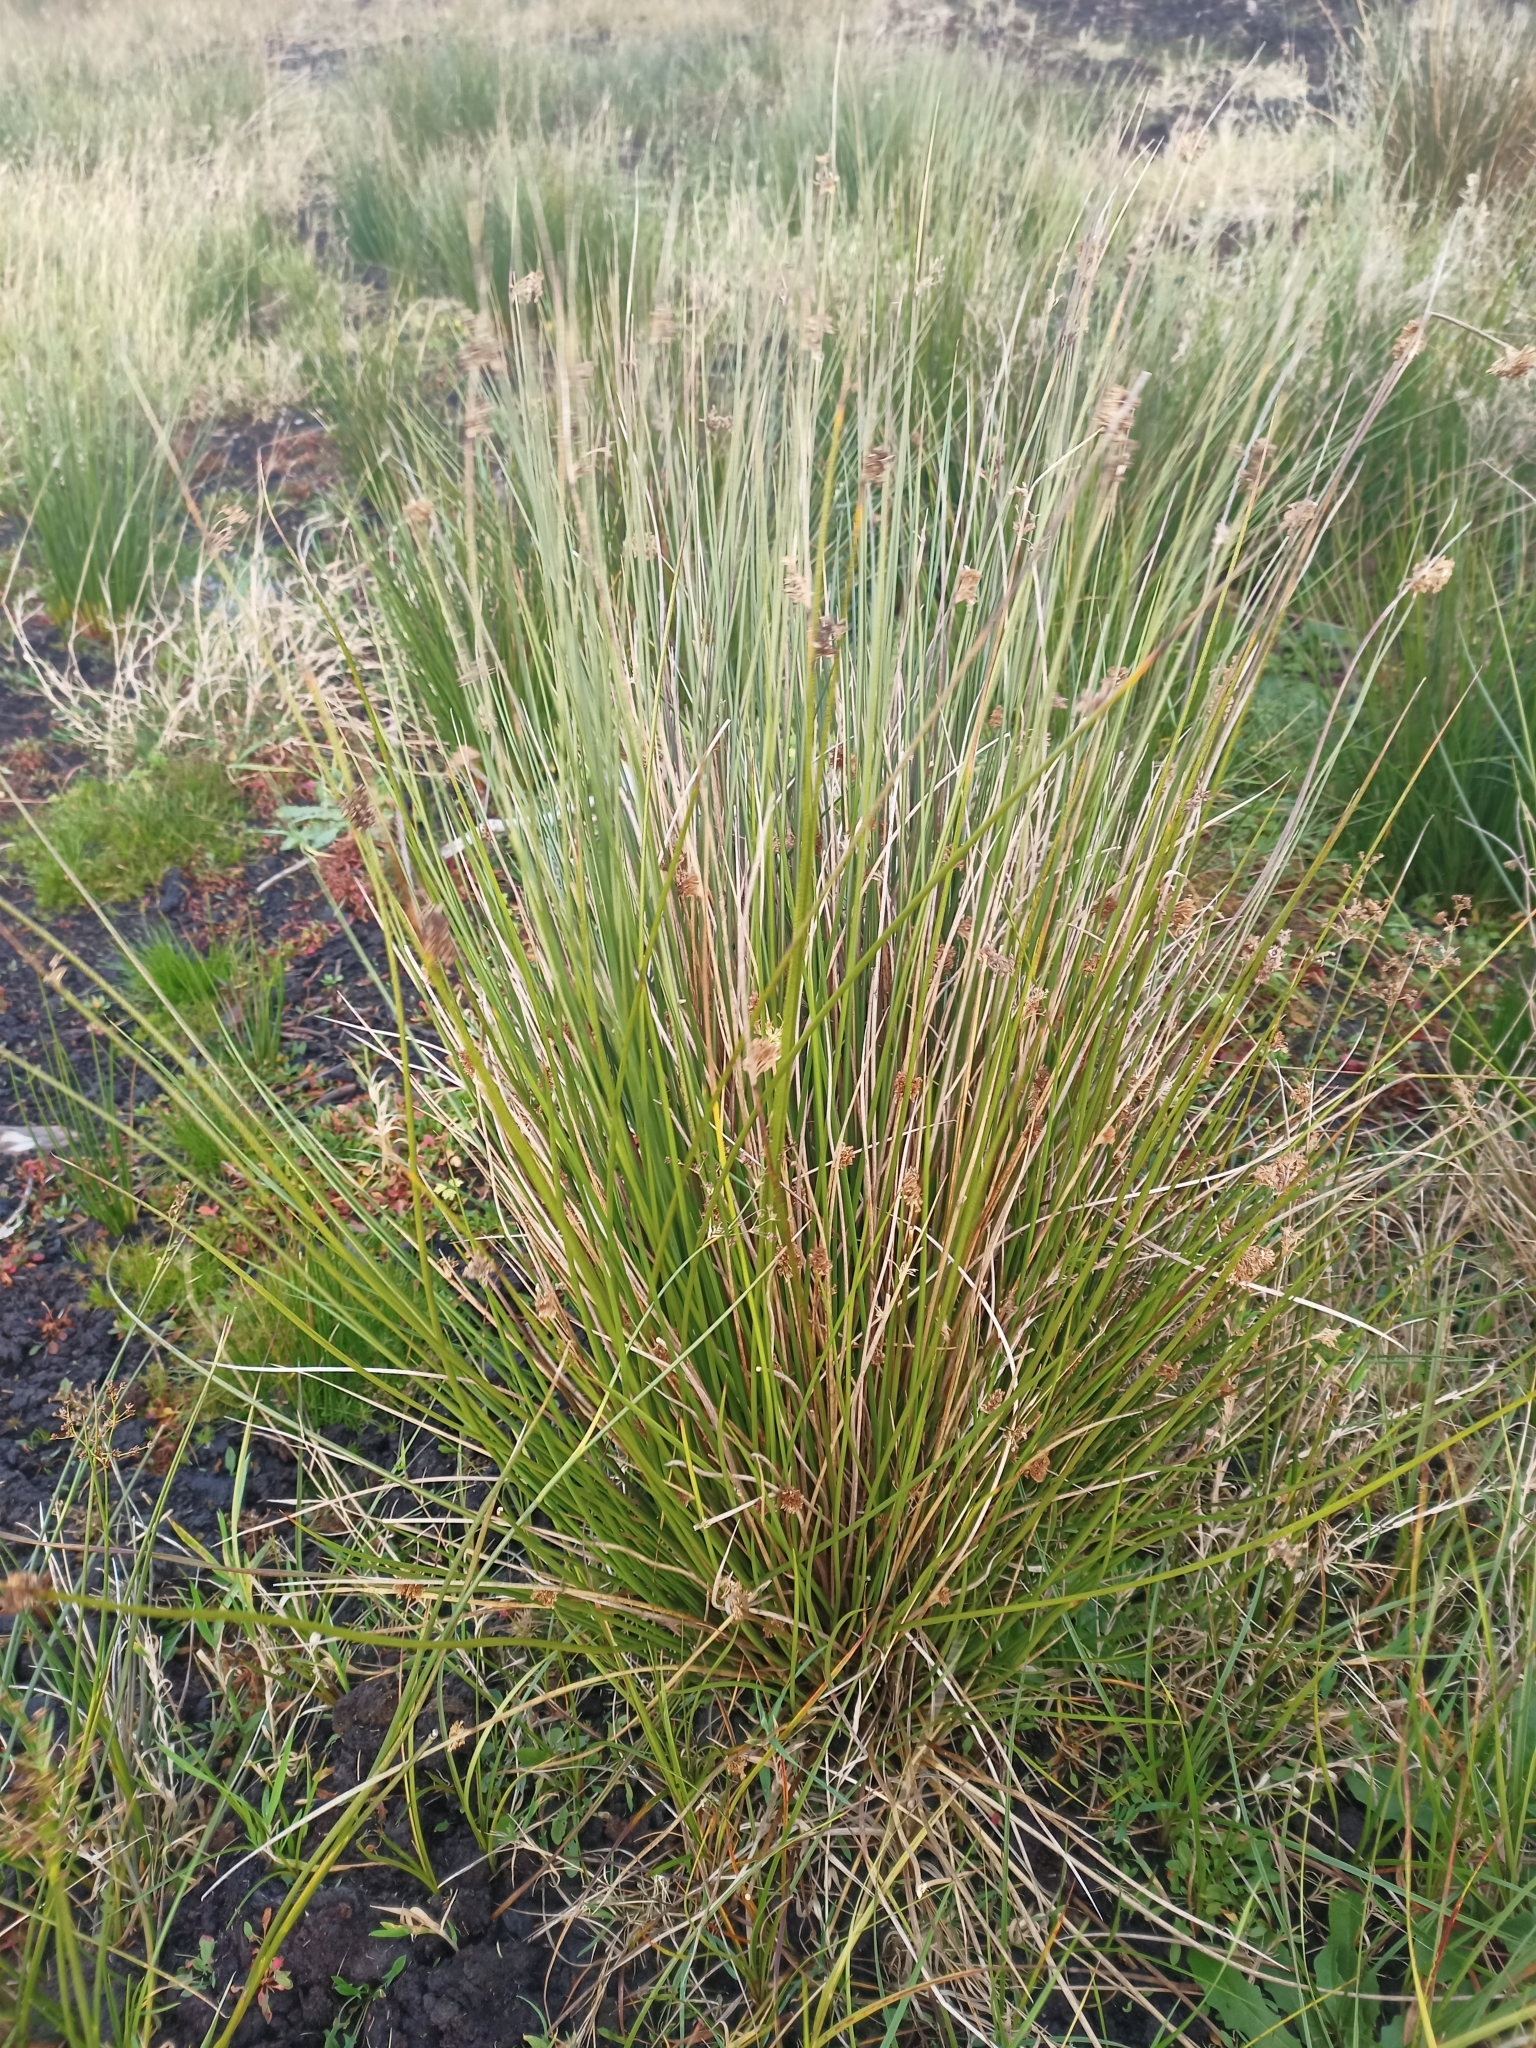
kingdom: Plantae
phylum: Tracheophyta
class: Liliopsida
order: Poales
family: Juncaceae
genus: Juncus
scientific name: Juncus effusus
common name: Soft rush
